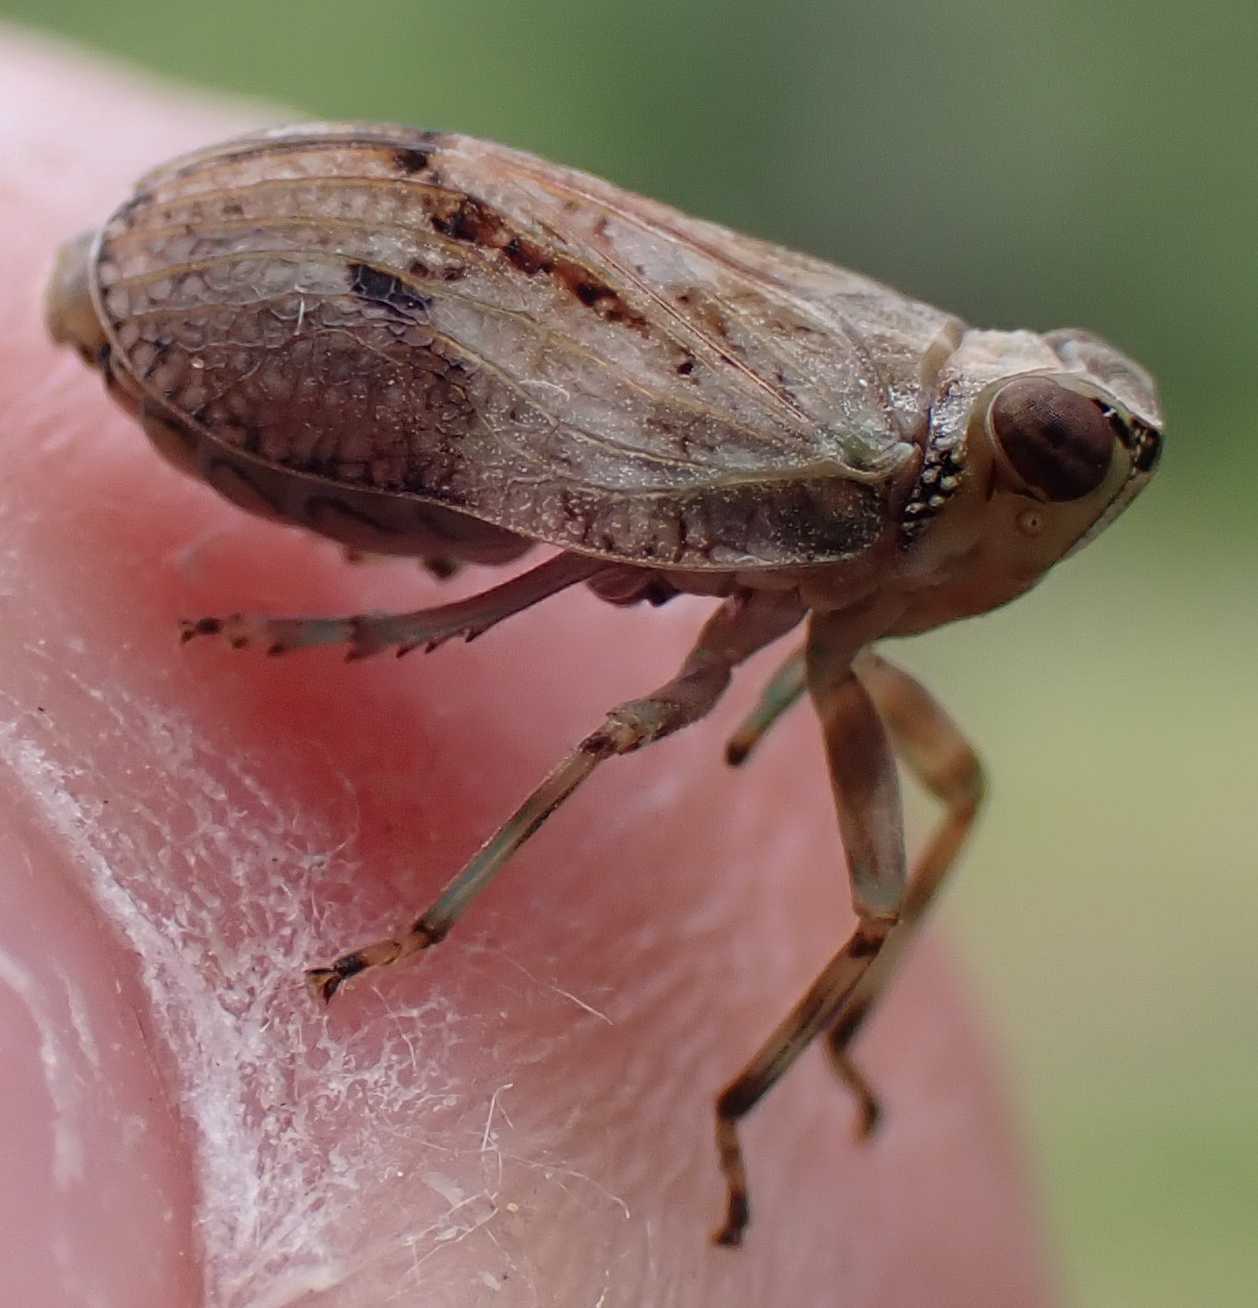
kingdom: Animalia
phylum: Arthropoda
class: Insecta
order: Hemiptera
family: Issidae
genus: Issus
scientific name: Issus coleoptratus
